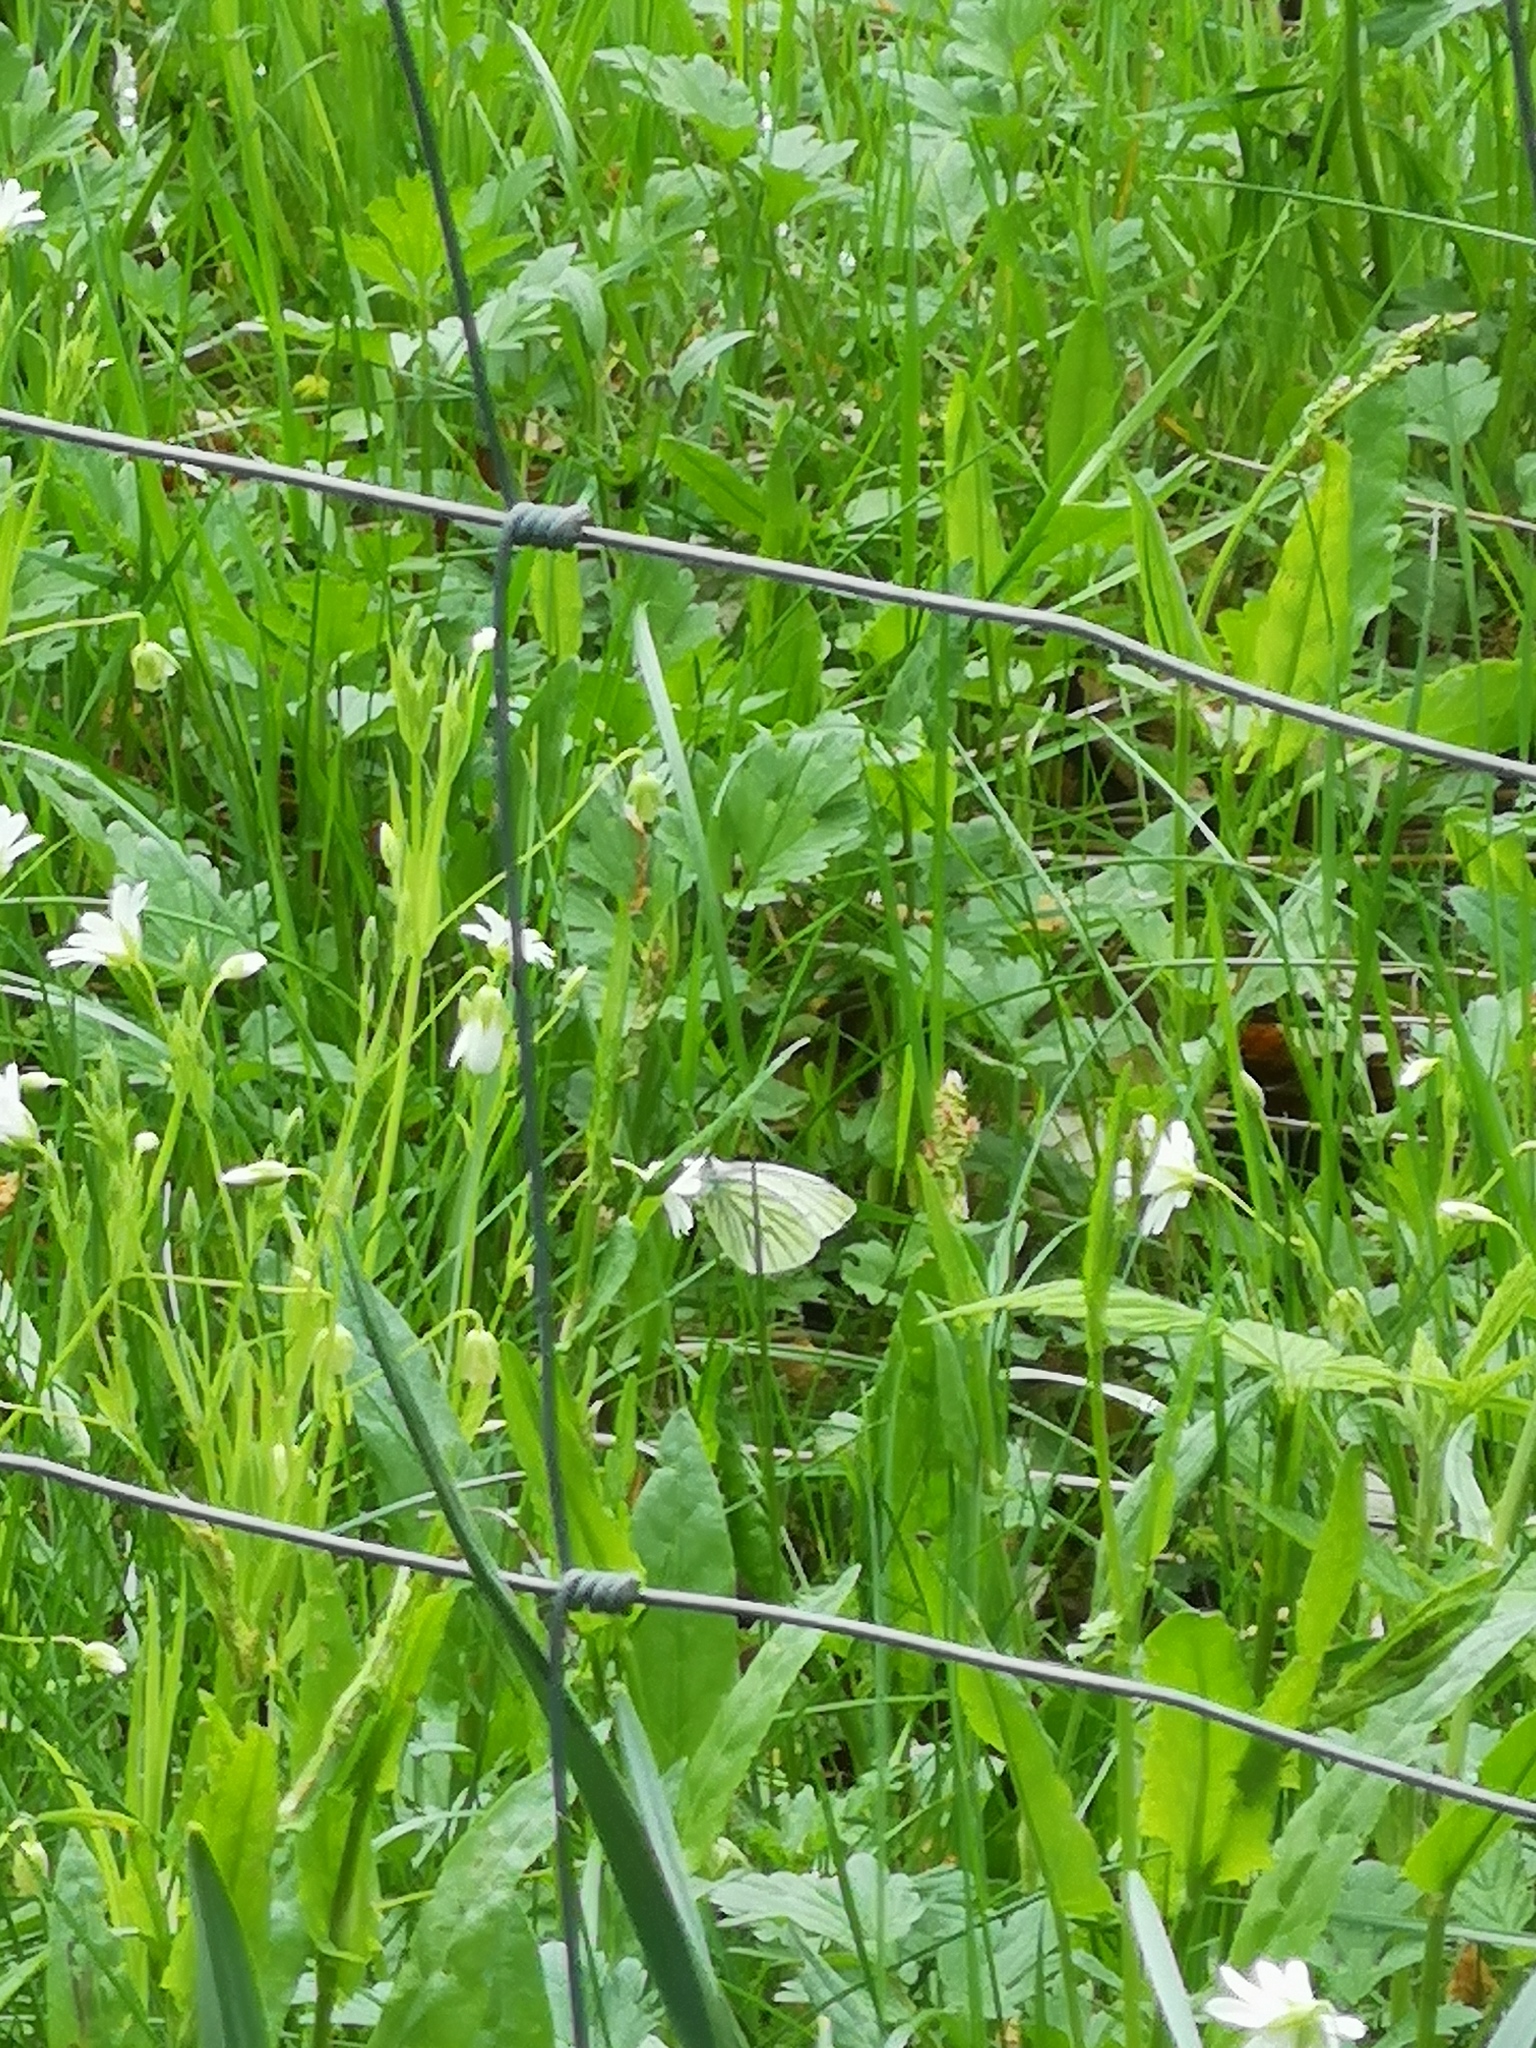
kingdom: Animalia
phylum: Arthropoda
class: Insecta
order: Lepidoptera
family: Pieridae
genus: Pieris
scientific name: Pieris napi
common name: Green-veined white
